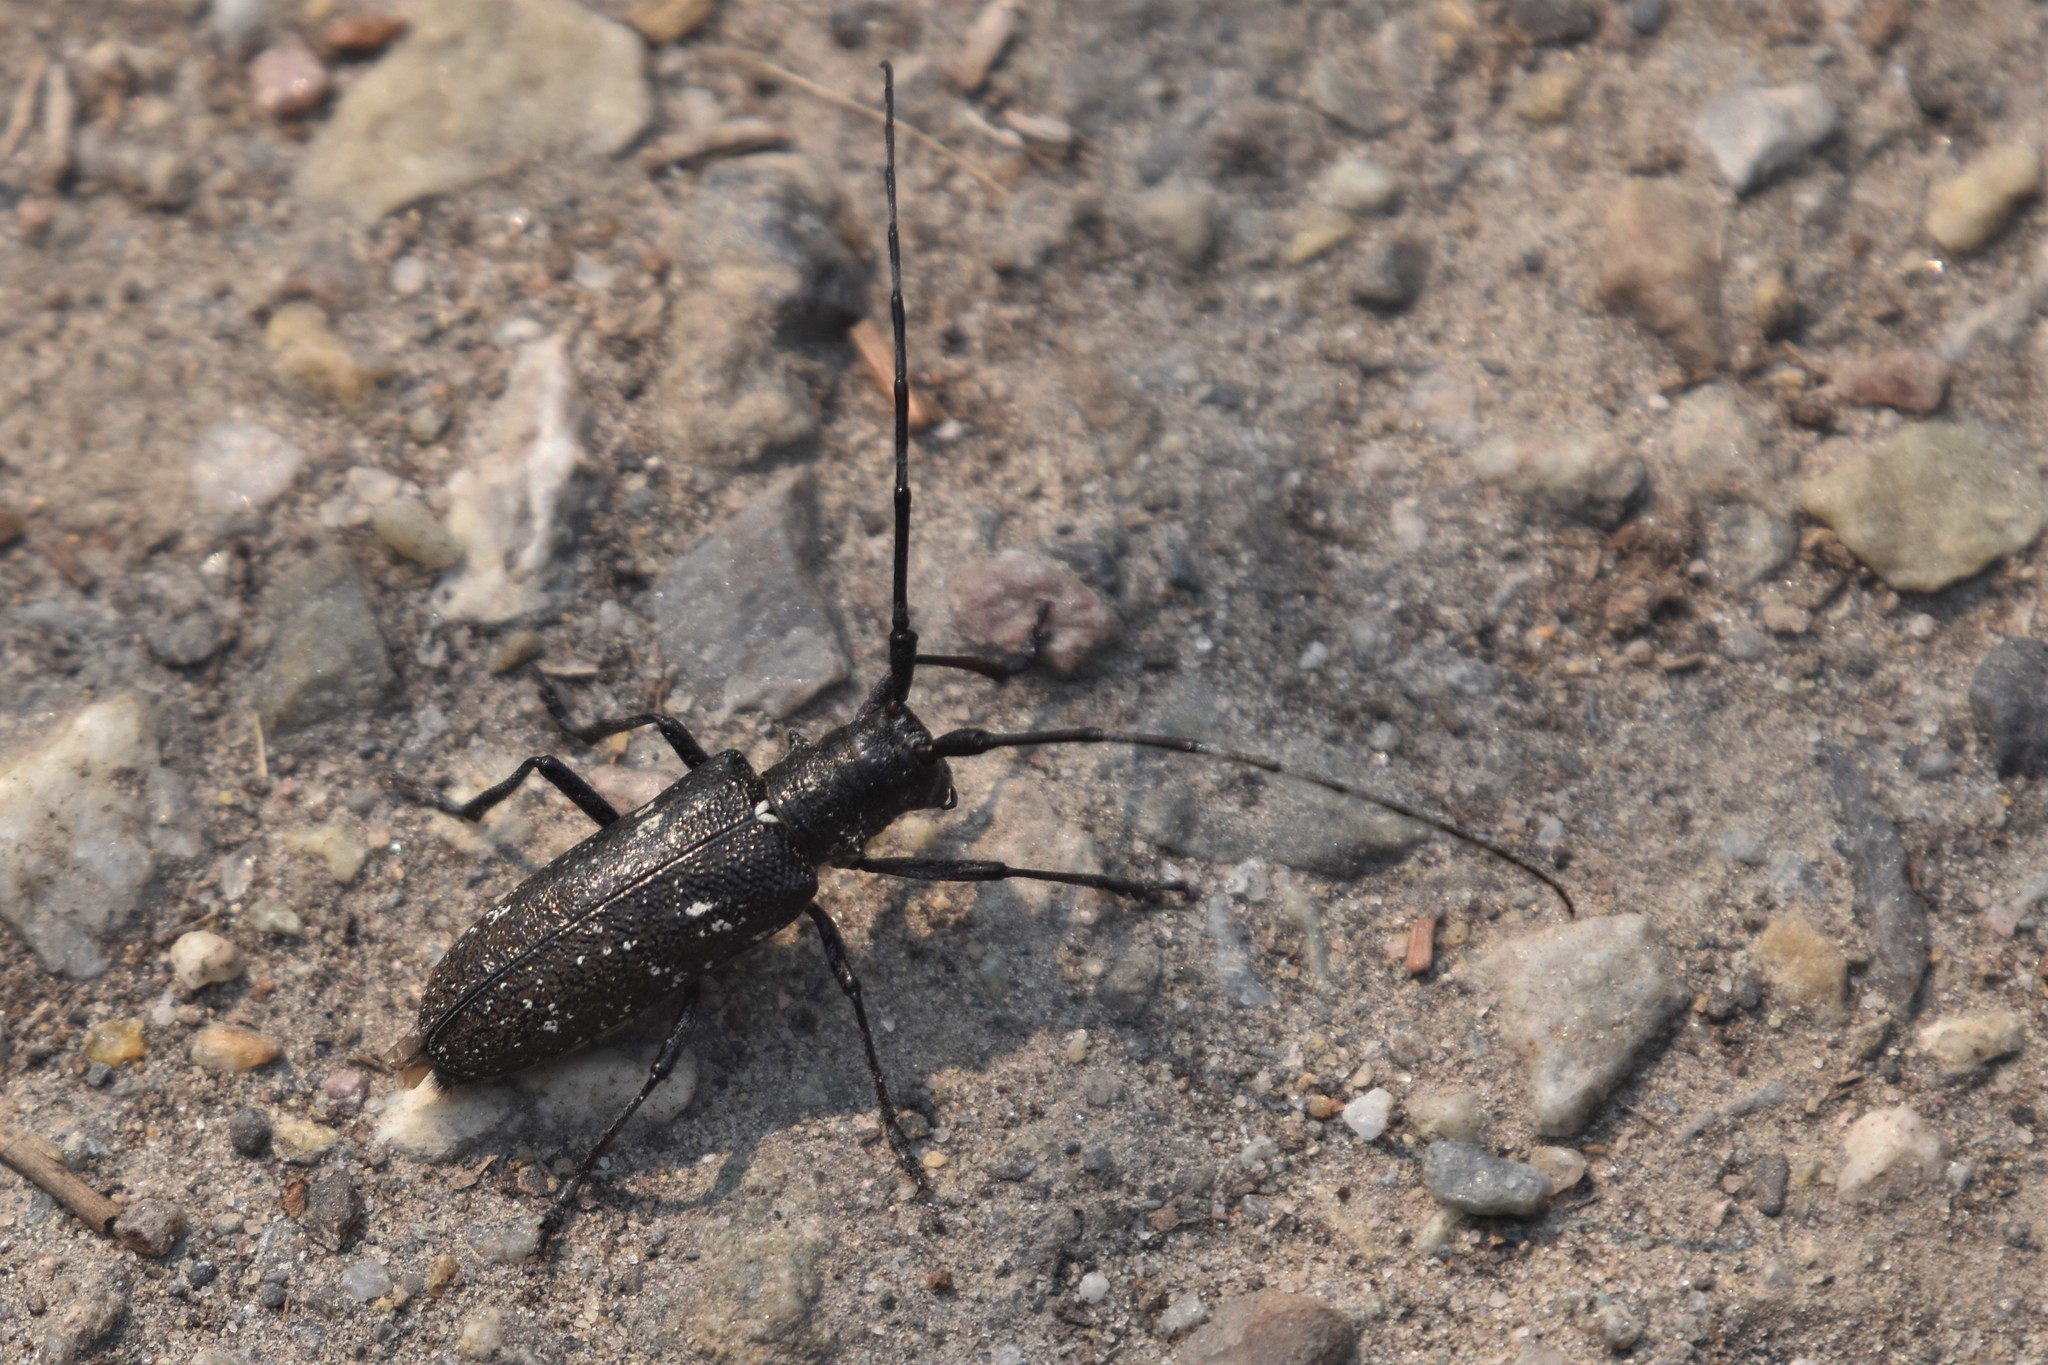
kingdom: Animalia
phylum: Arthropoda
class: Insecta
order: Coleoptera
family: Cerambycidae
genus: Monochamus
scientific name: Monochamus scutellatus
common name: White-spotted sawyer beetle
